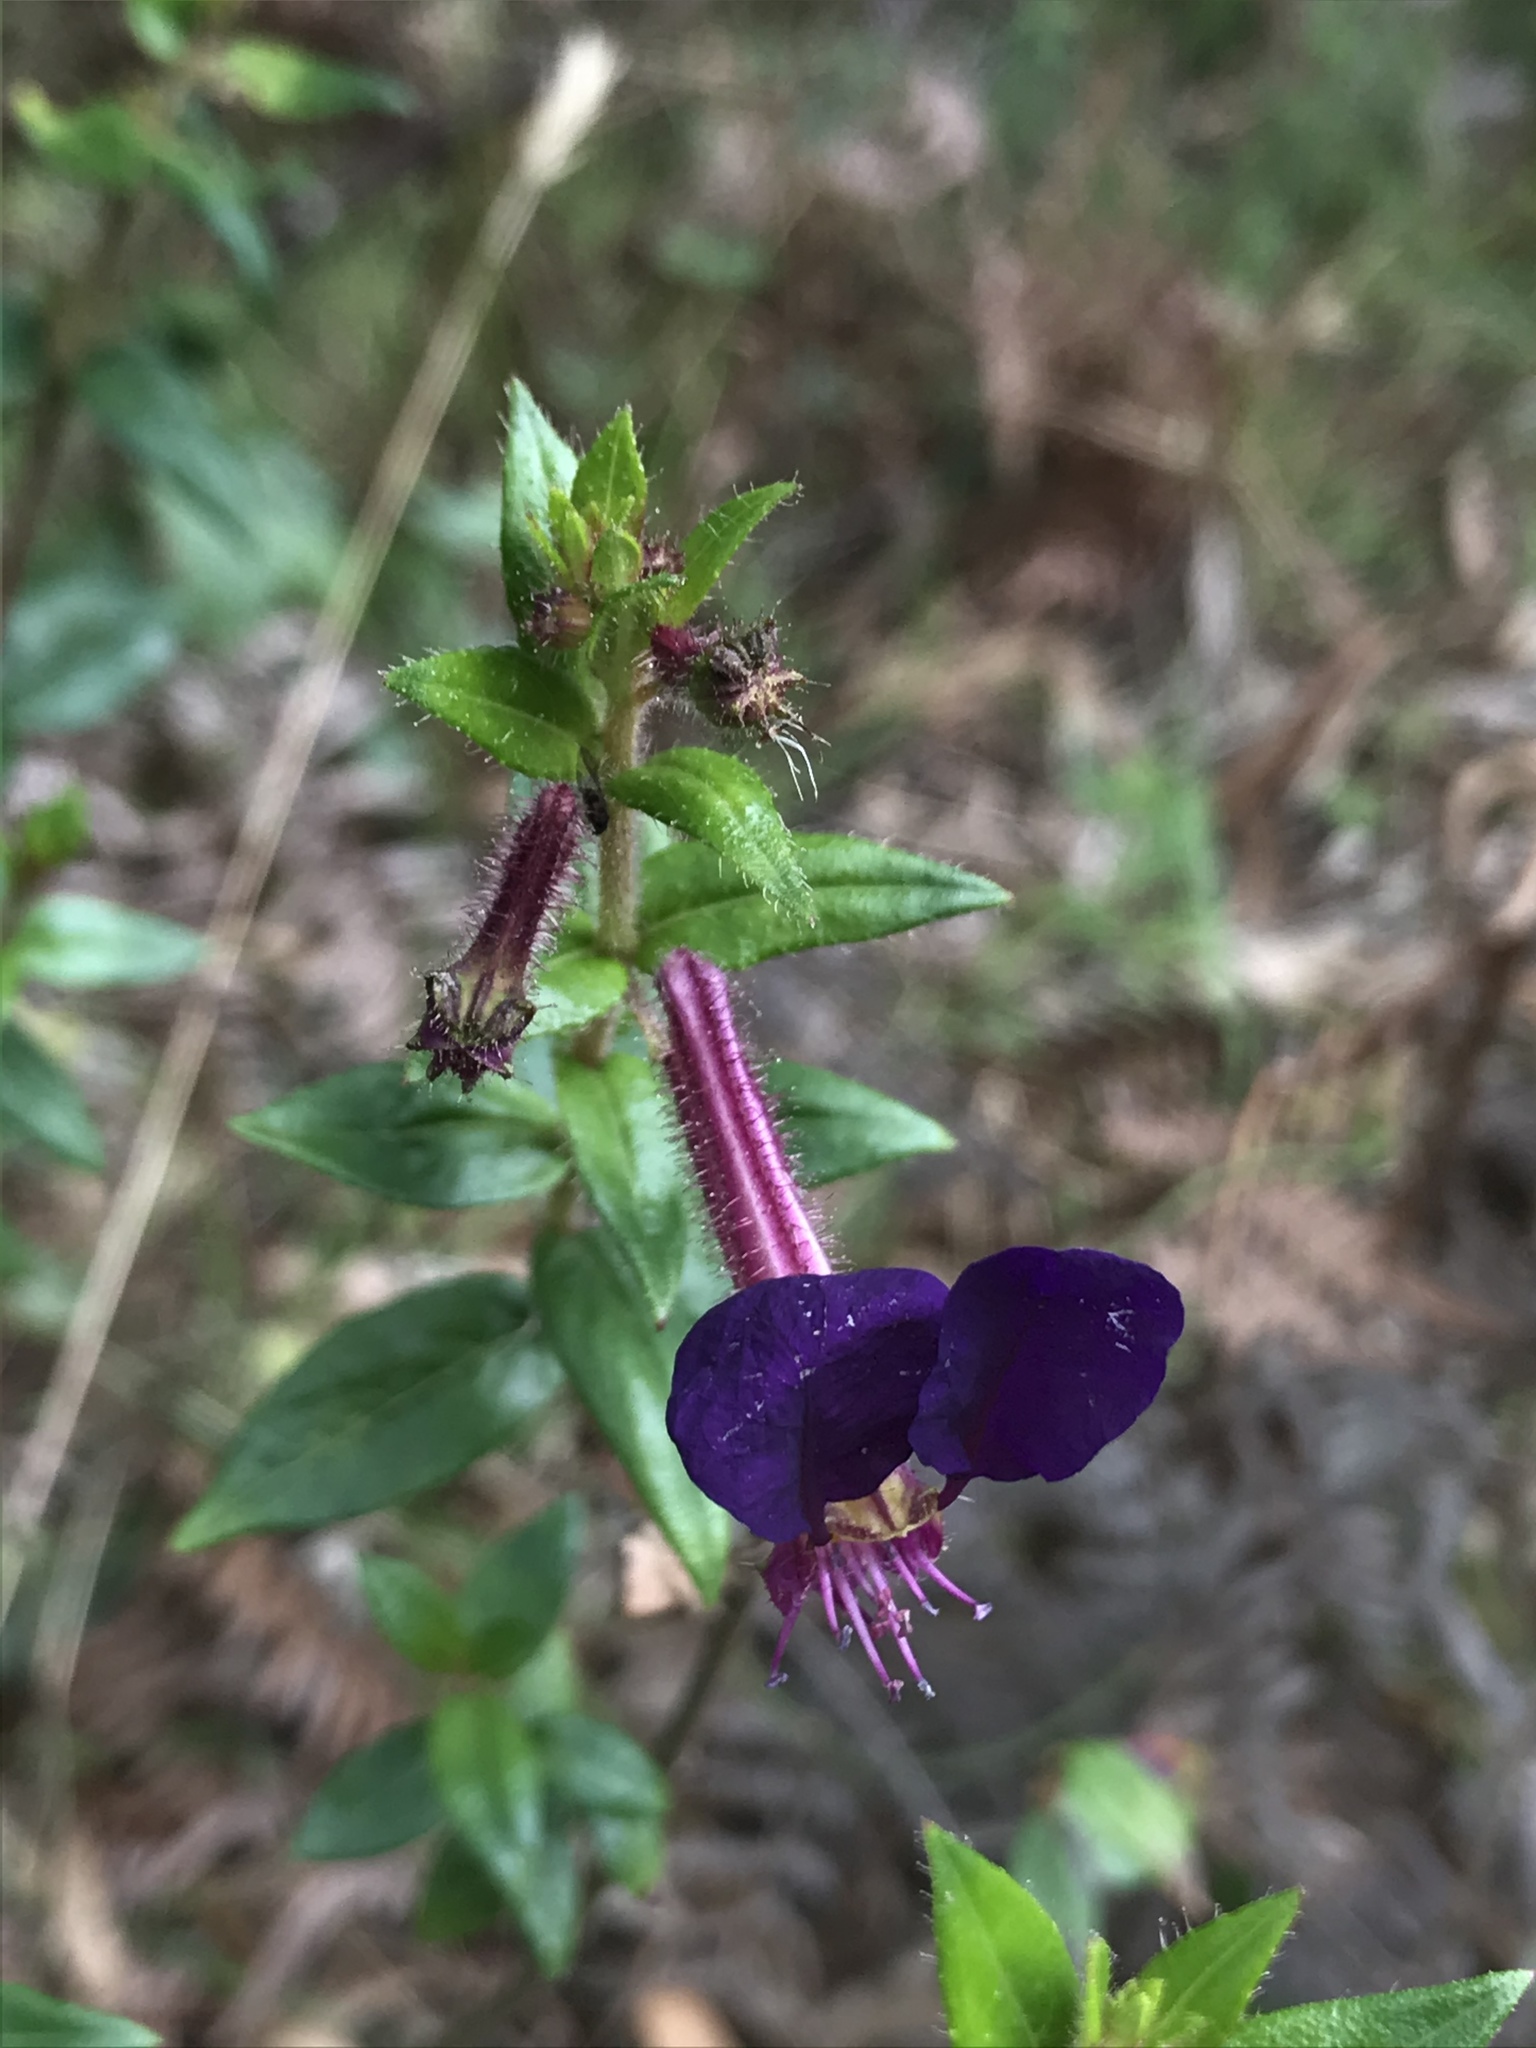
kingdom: Plantae
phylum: Tracheophyta
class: Magnoliopsida
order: Myrtales
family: Lythraceae
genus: Cuphea
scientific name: Cuphea dipetala
